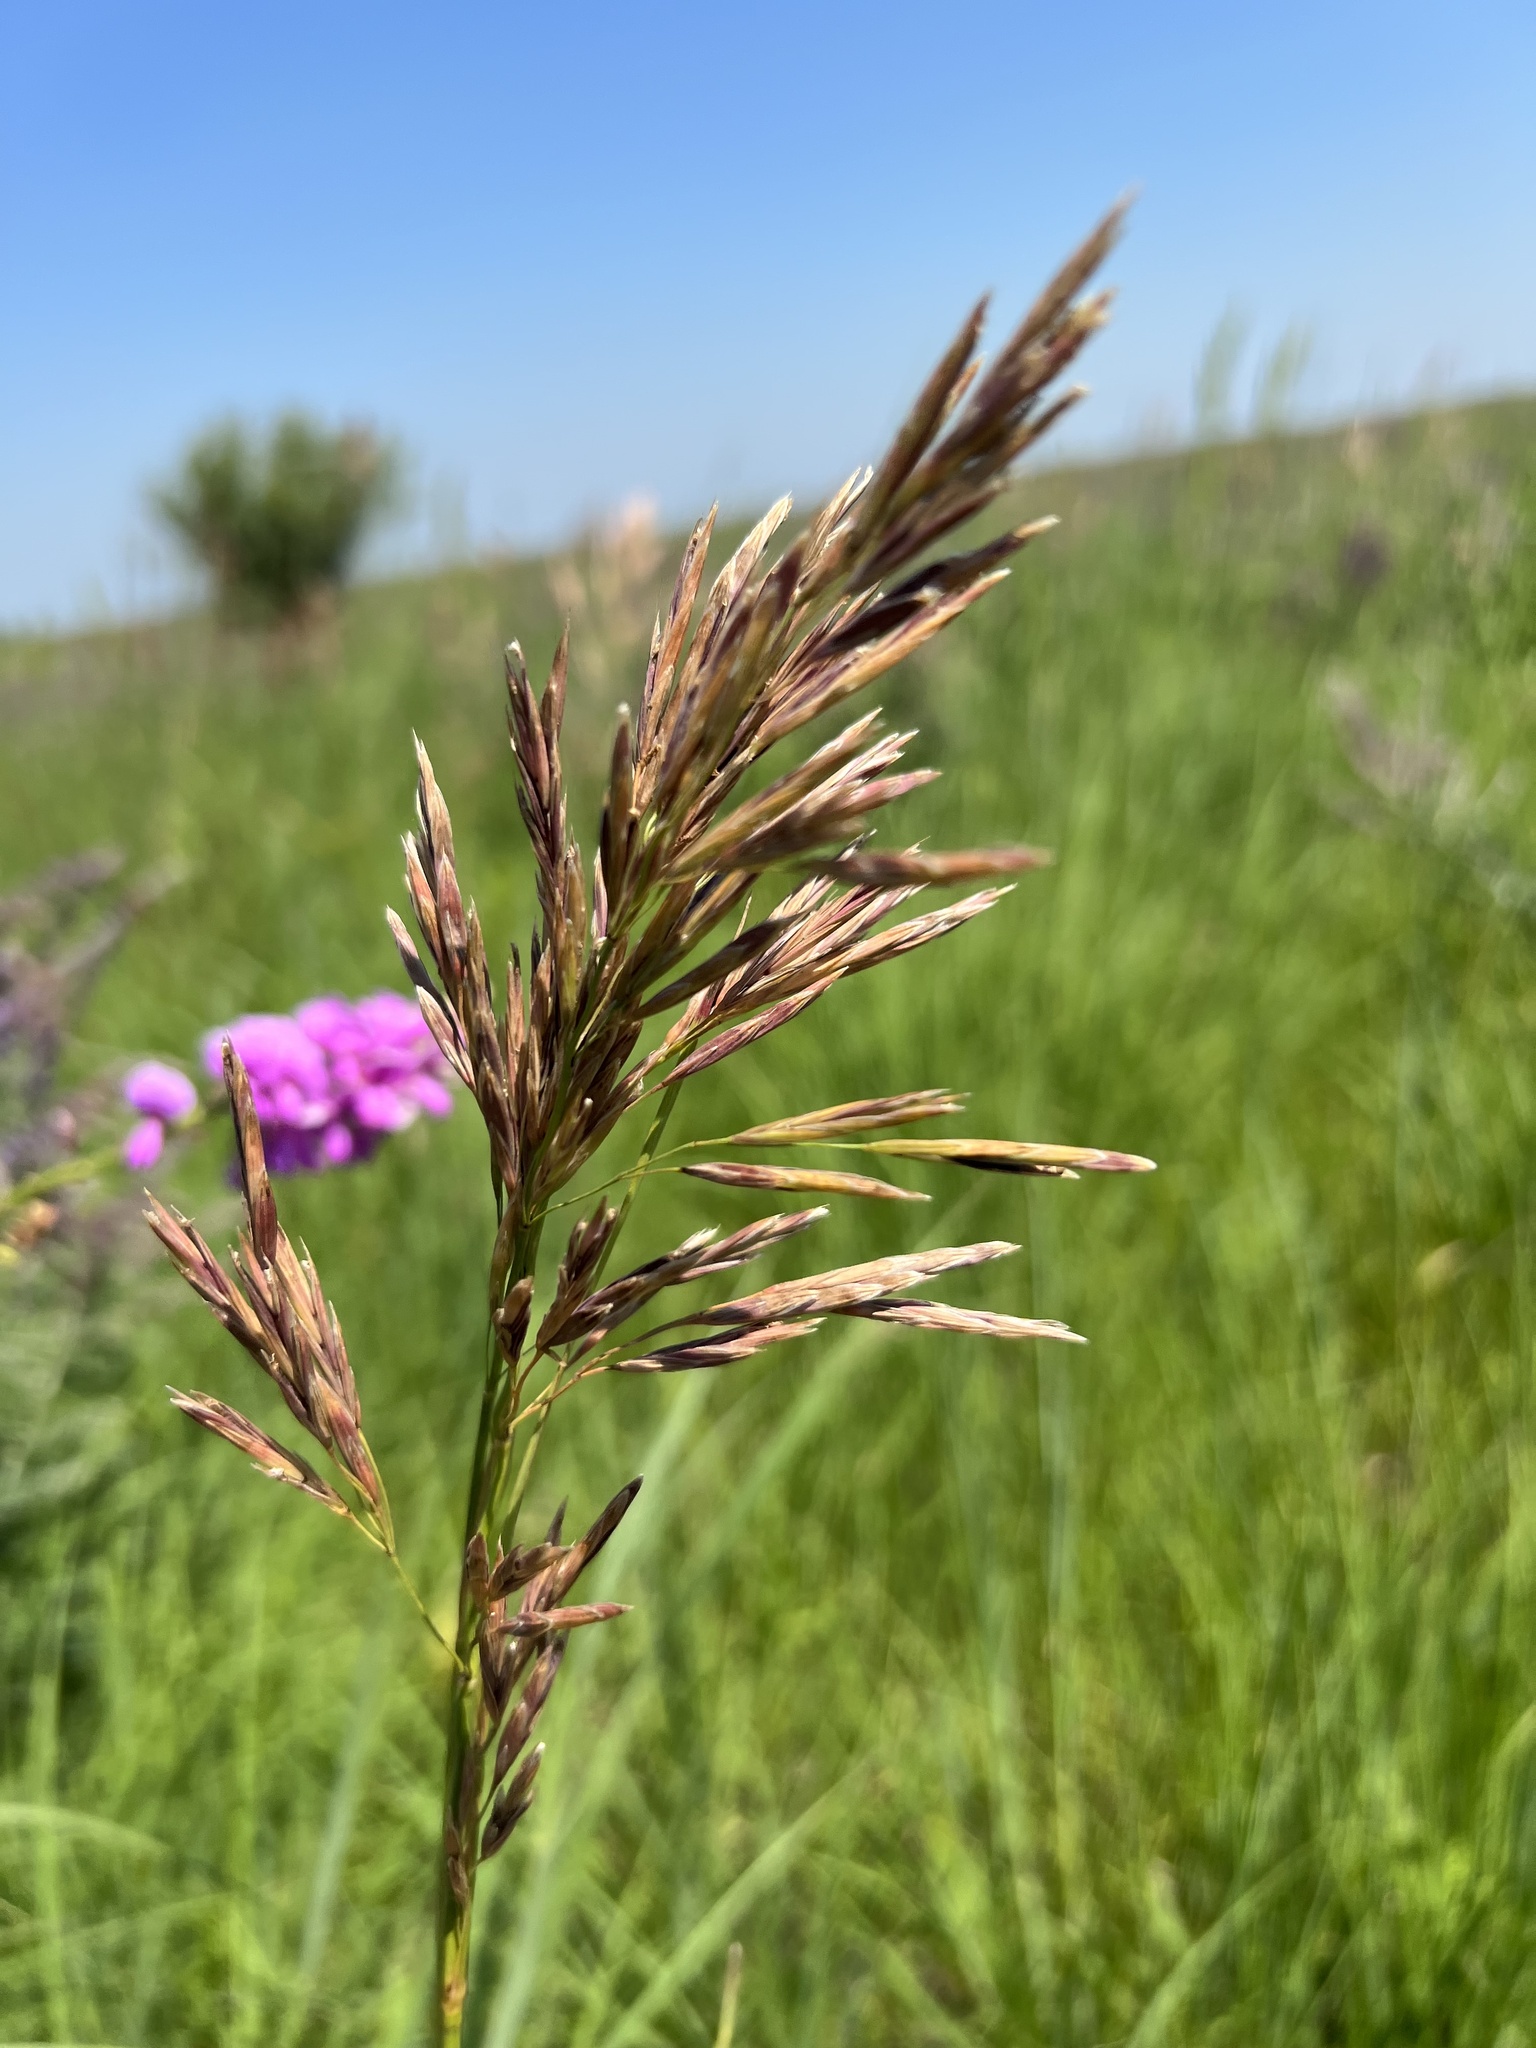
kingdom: Plantae
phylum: Tracheophyta
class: Liliopsida
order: Poales
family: Poaceae
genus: Bromus
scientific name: Bromus inermis
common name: Smooth brome
